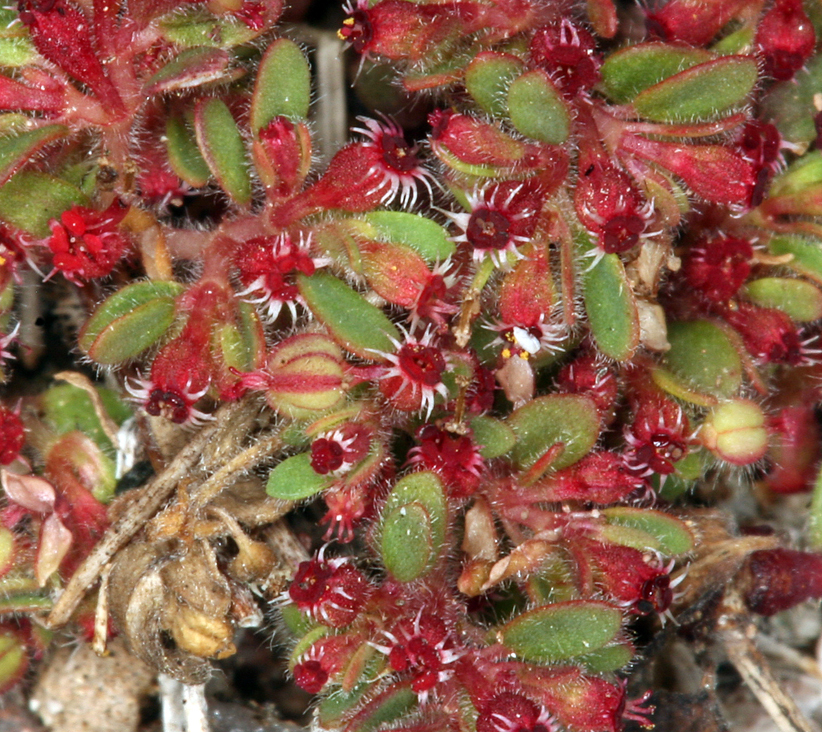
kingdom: Plantae
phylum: Tracheophyta
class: Magnoliopsida
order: Malpighiales
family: Euphorbiaceae
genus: Euphorbia
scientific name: Euphorbia setiloba
